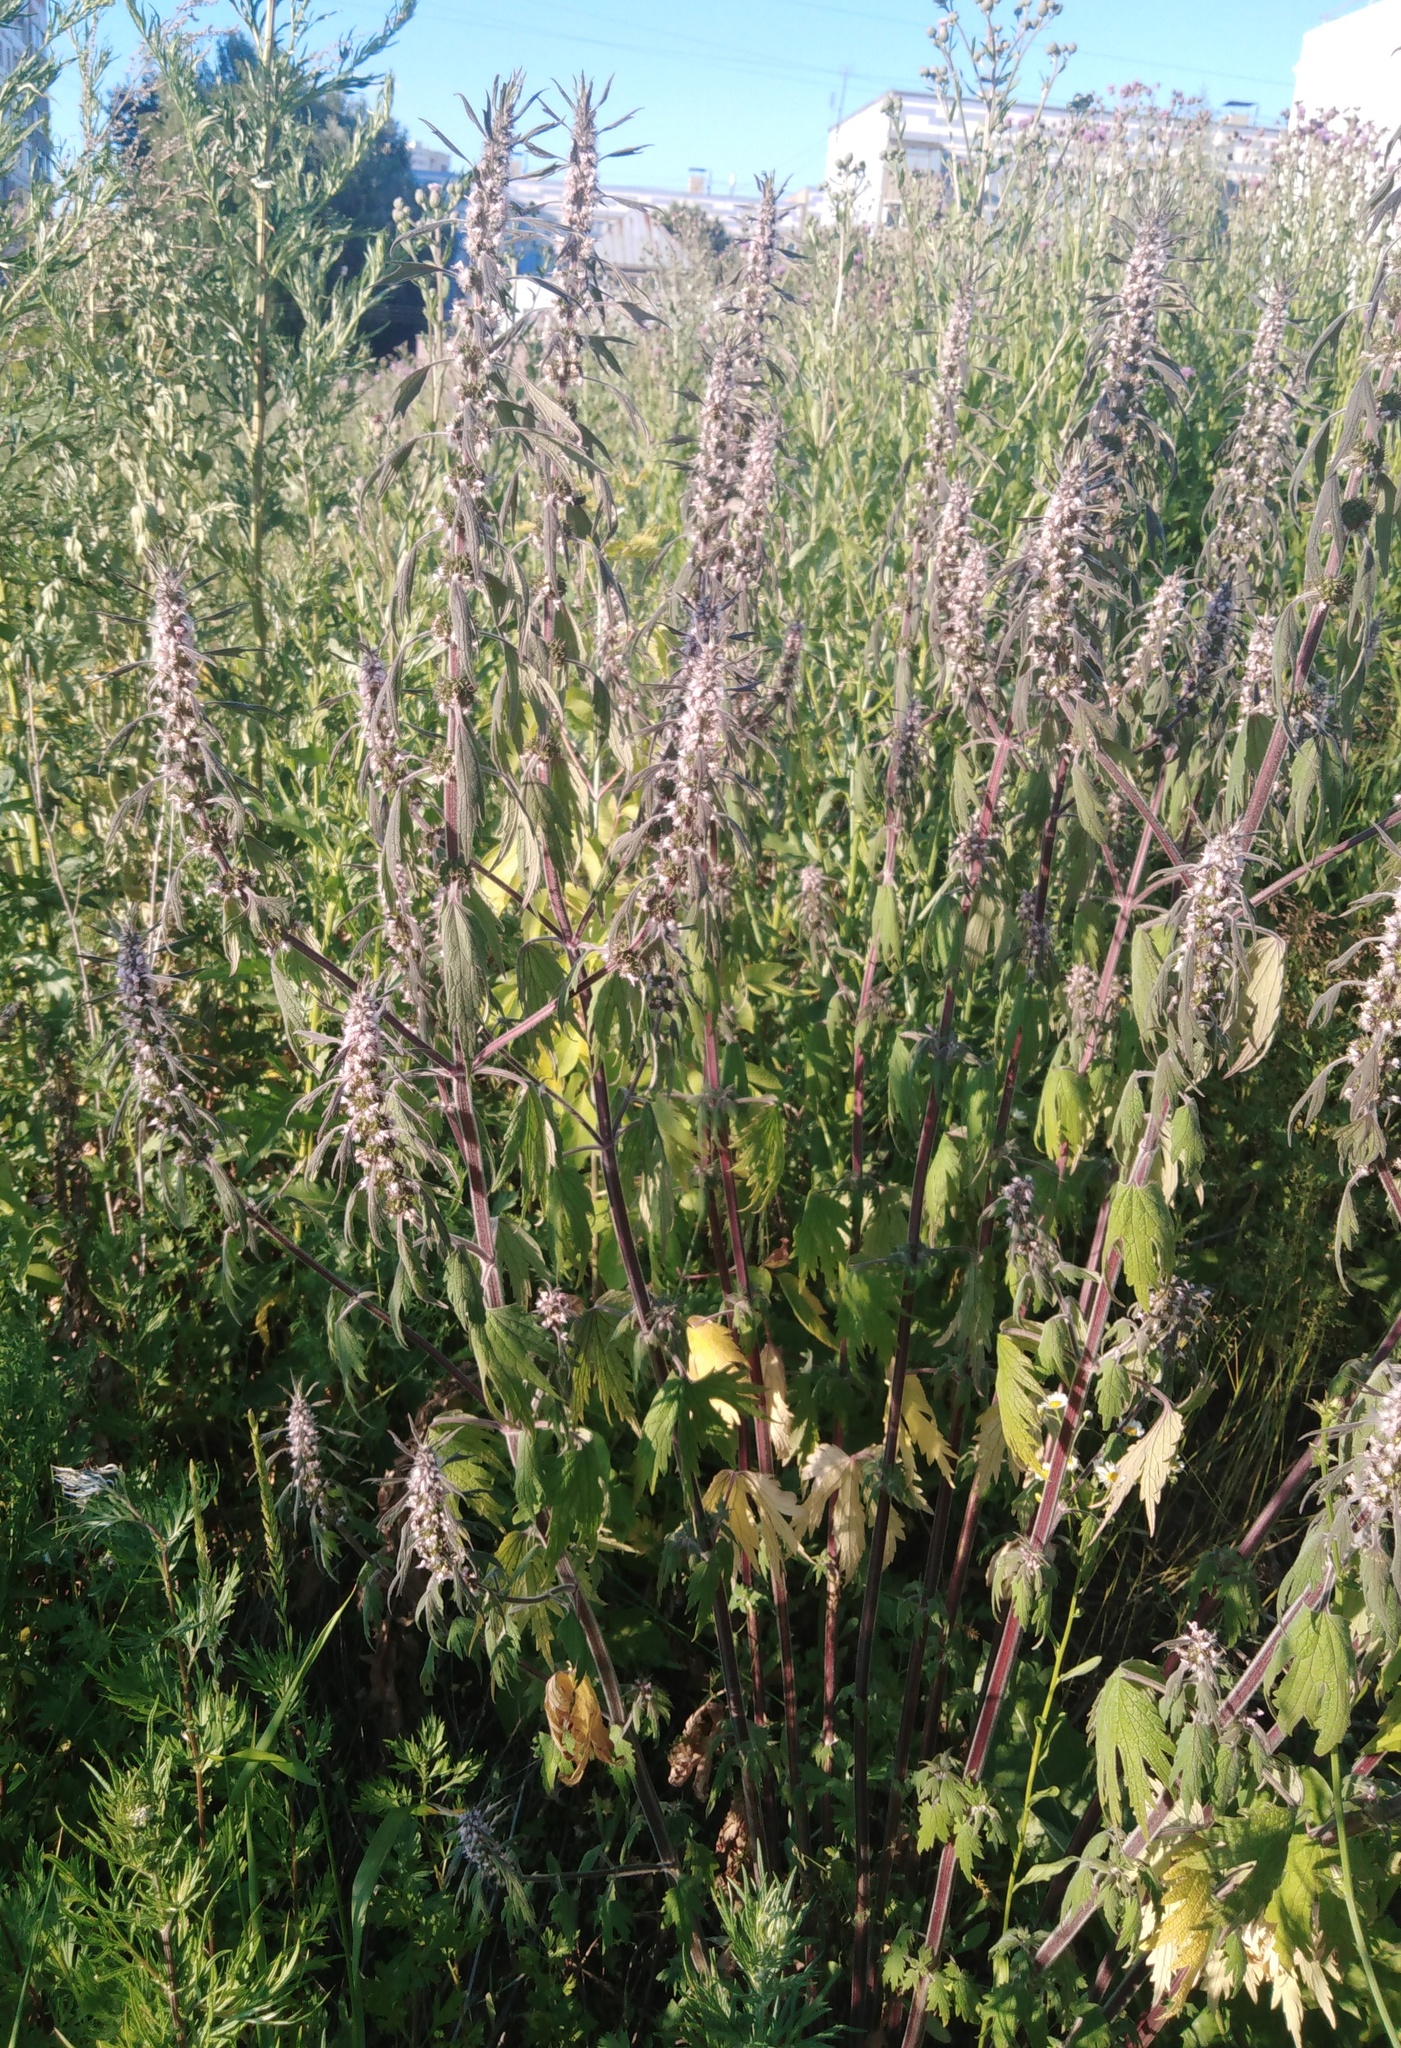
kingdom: Plantae
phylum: Tracheophyta
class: Magnoliopsida
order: Lamiales
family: Lamiaceae
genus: Leonurus
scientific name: Leonurus quinquelobatus
